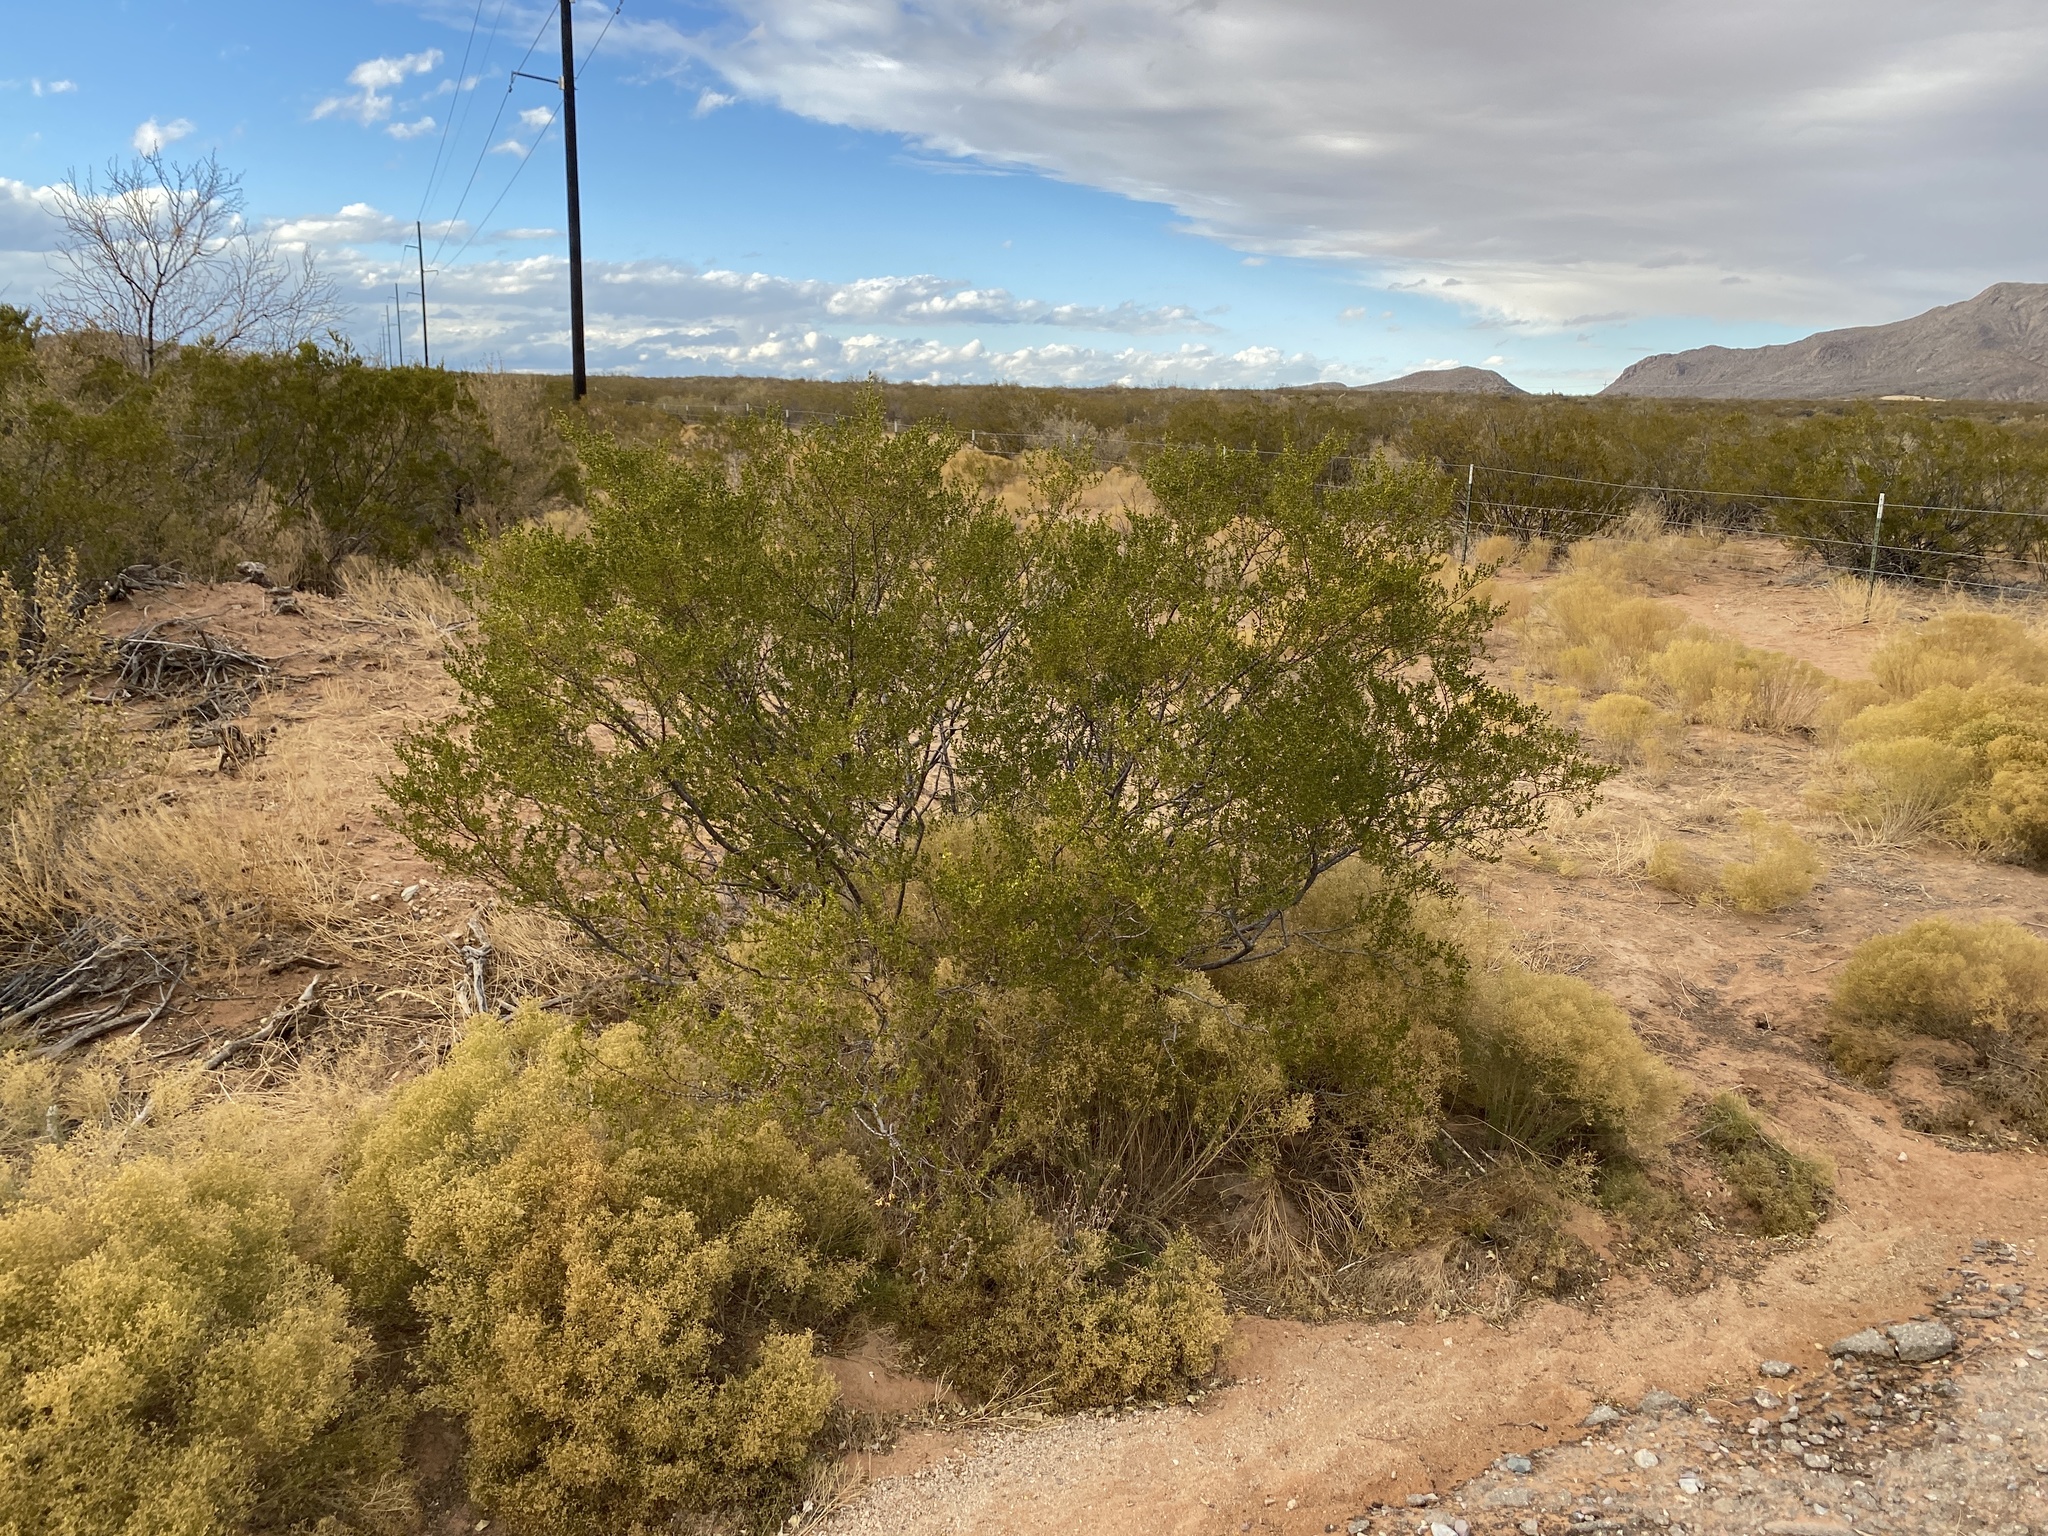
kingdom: Plantae
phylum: Tracheophyta
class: Magnoliopsida
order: Zygophyllales
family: Zygophyllaceae
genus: Larrea
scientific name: Larrea tridentata
